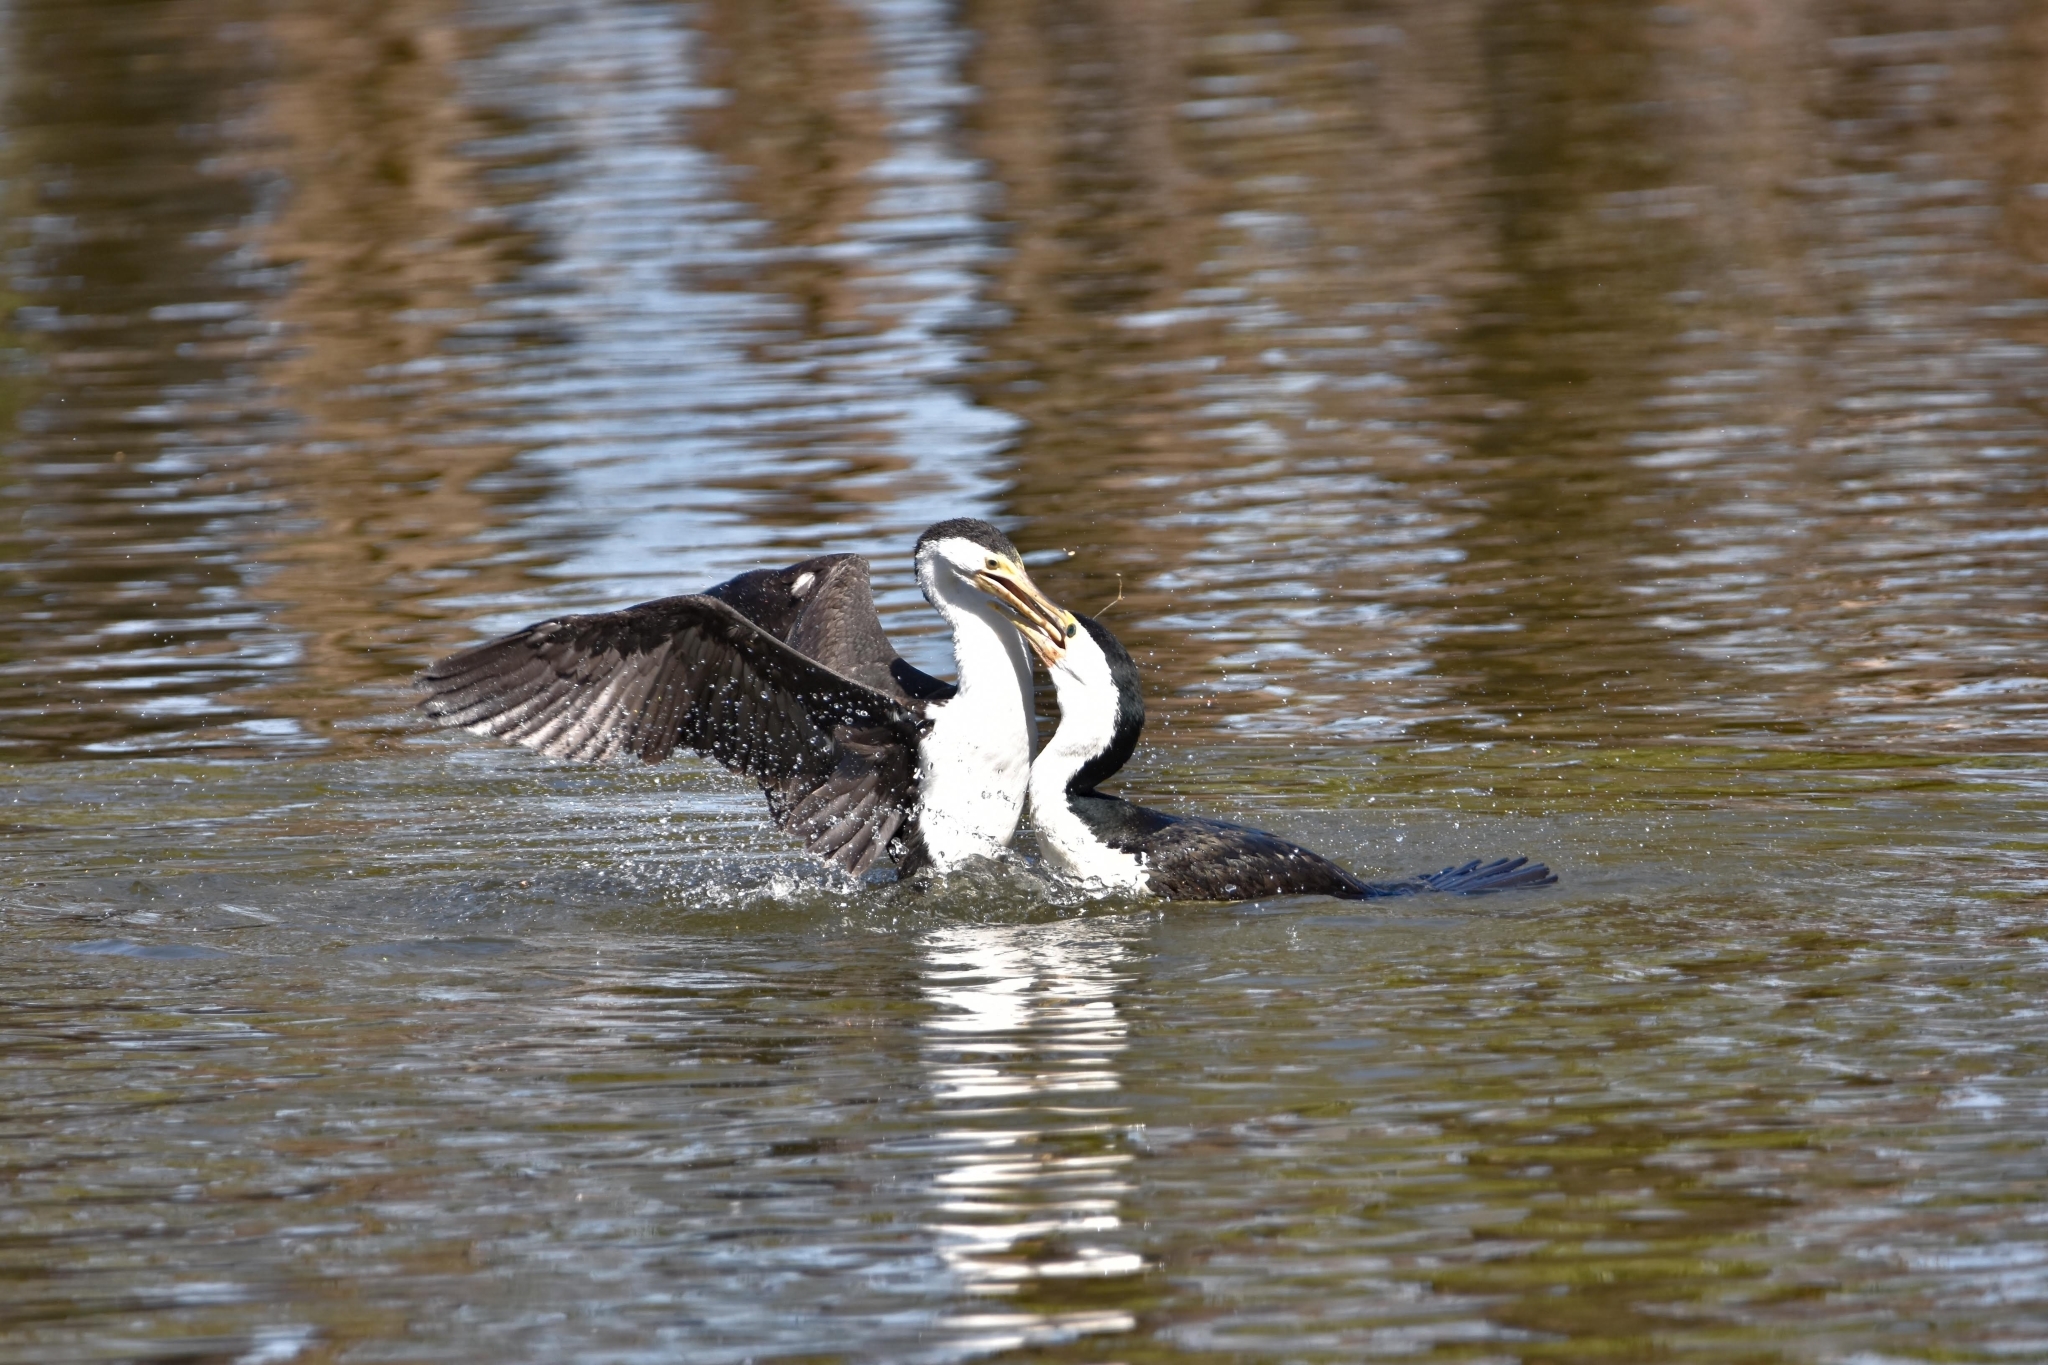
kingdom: Animalia
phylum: Chordata
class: Aves
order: Suliformes
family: Phalacrocoracidae
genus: Microcarbo
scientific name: Microcarbo melanoleucos
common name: Little pied cormorant
